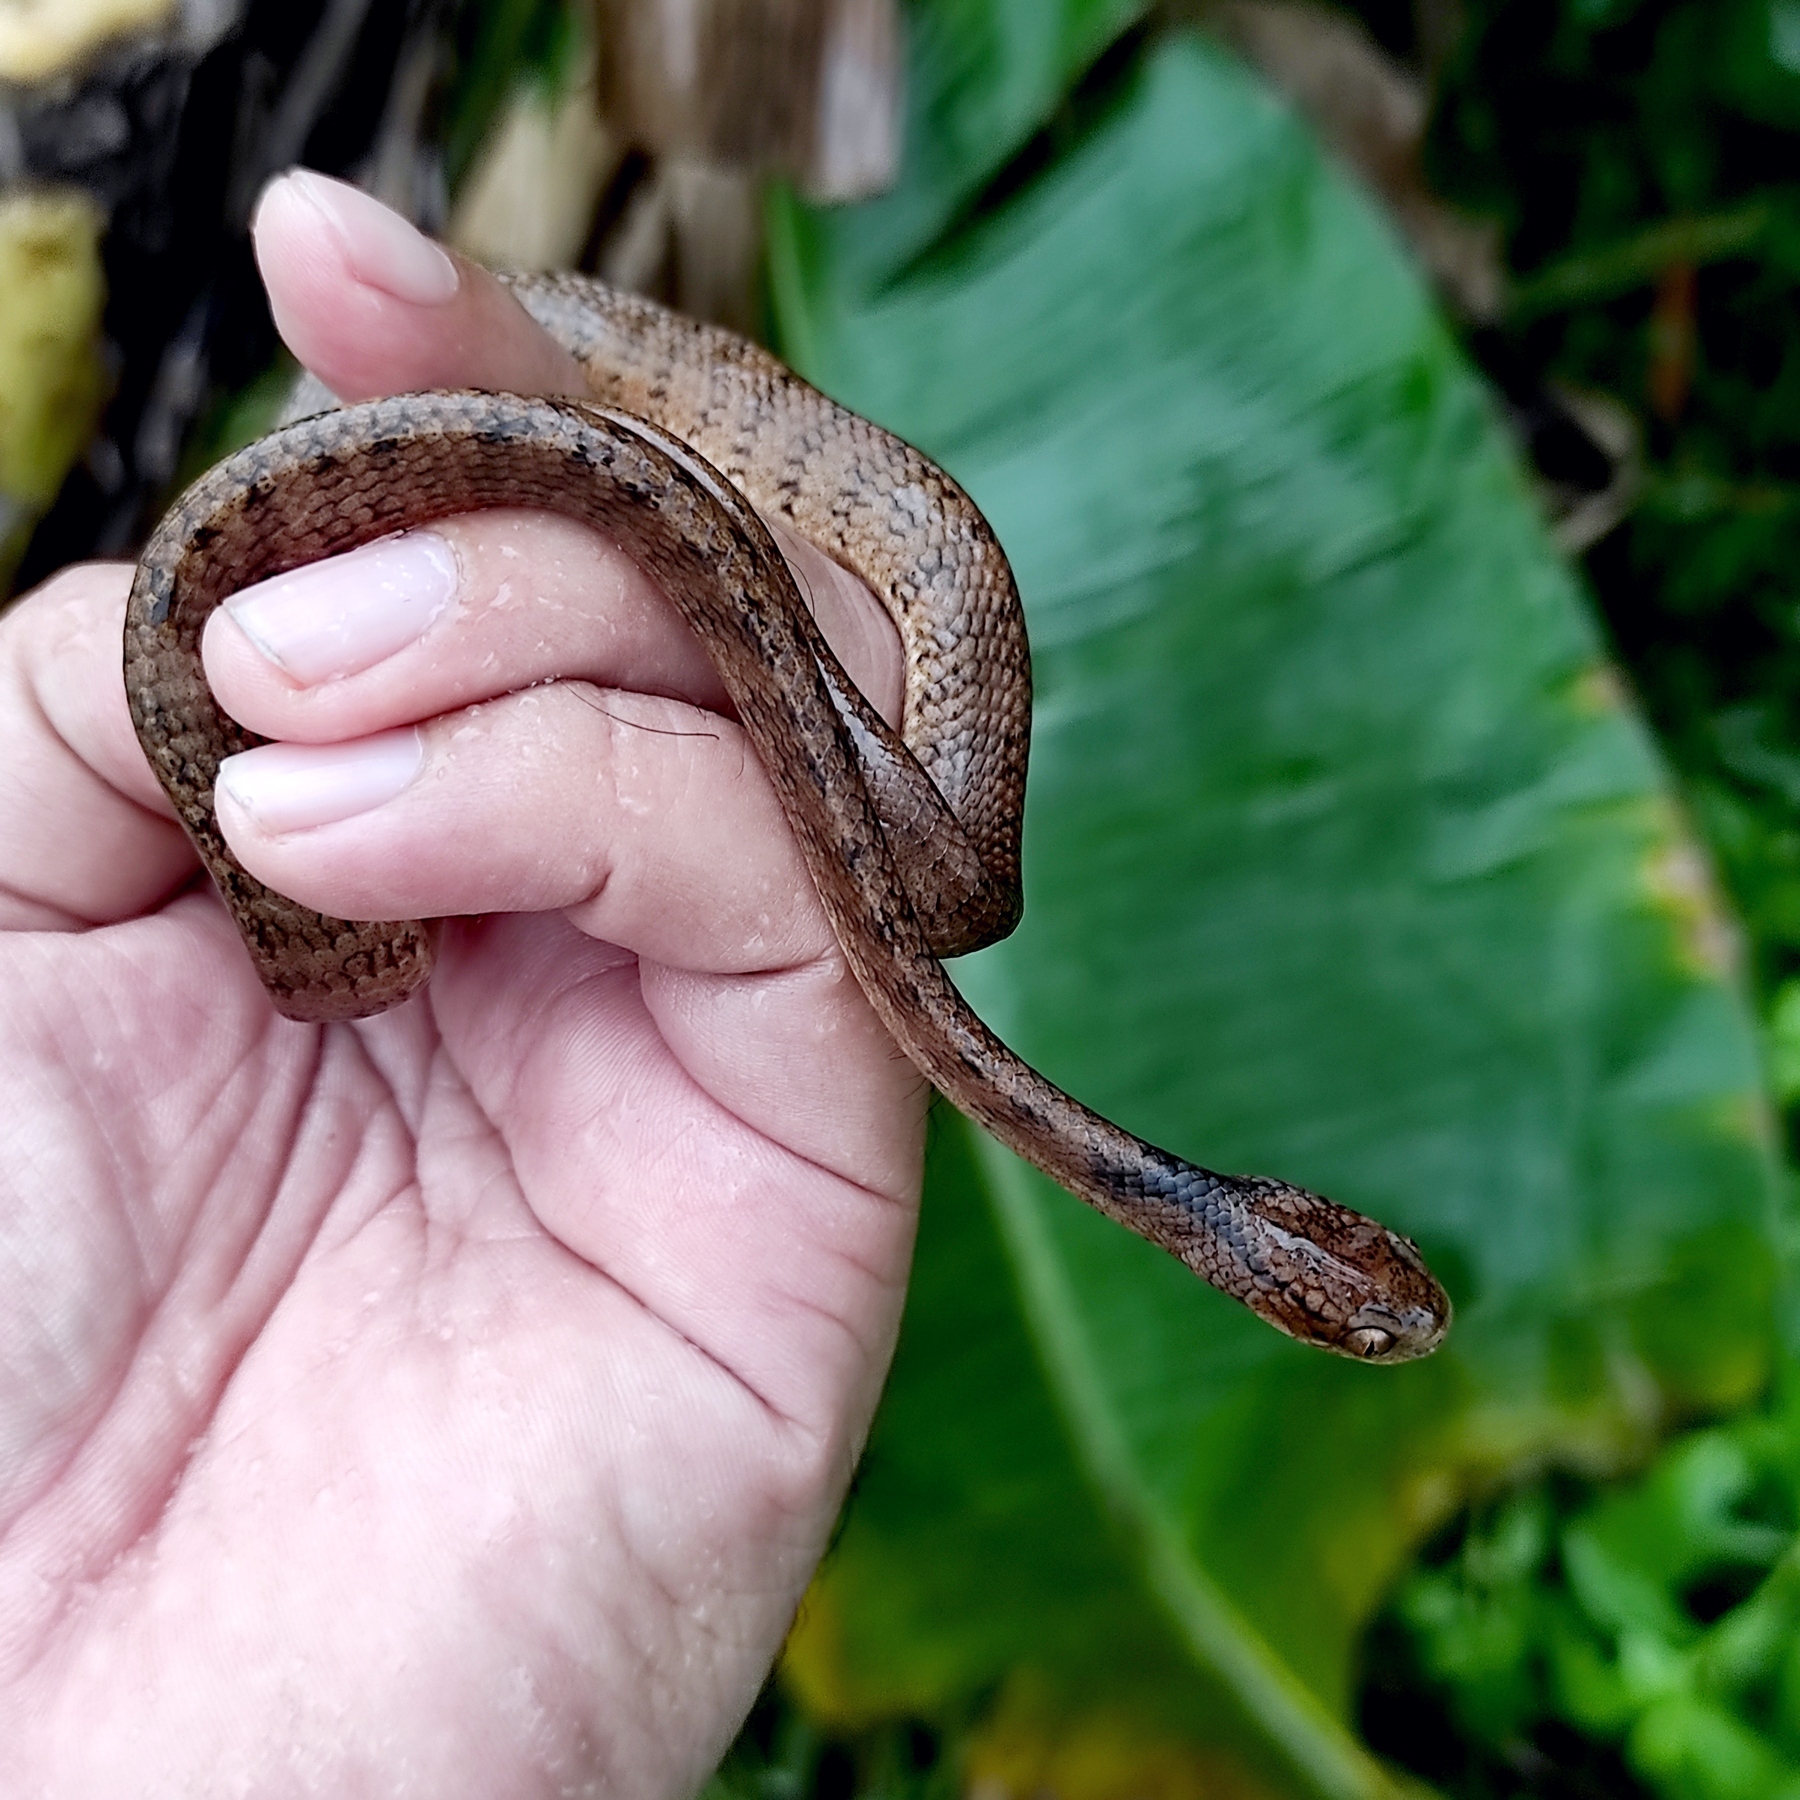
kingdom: Animalia
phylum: Chordata
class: Squamata
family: Pareidae
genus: Pareas
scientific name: Pareas carinatus
